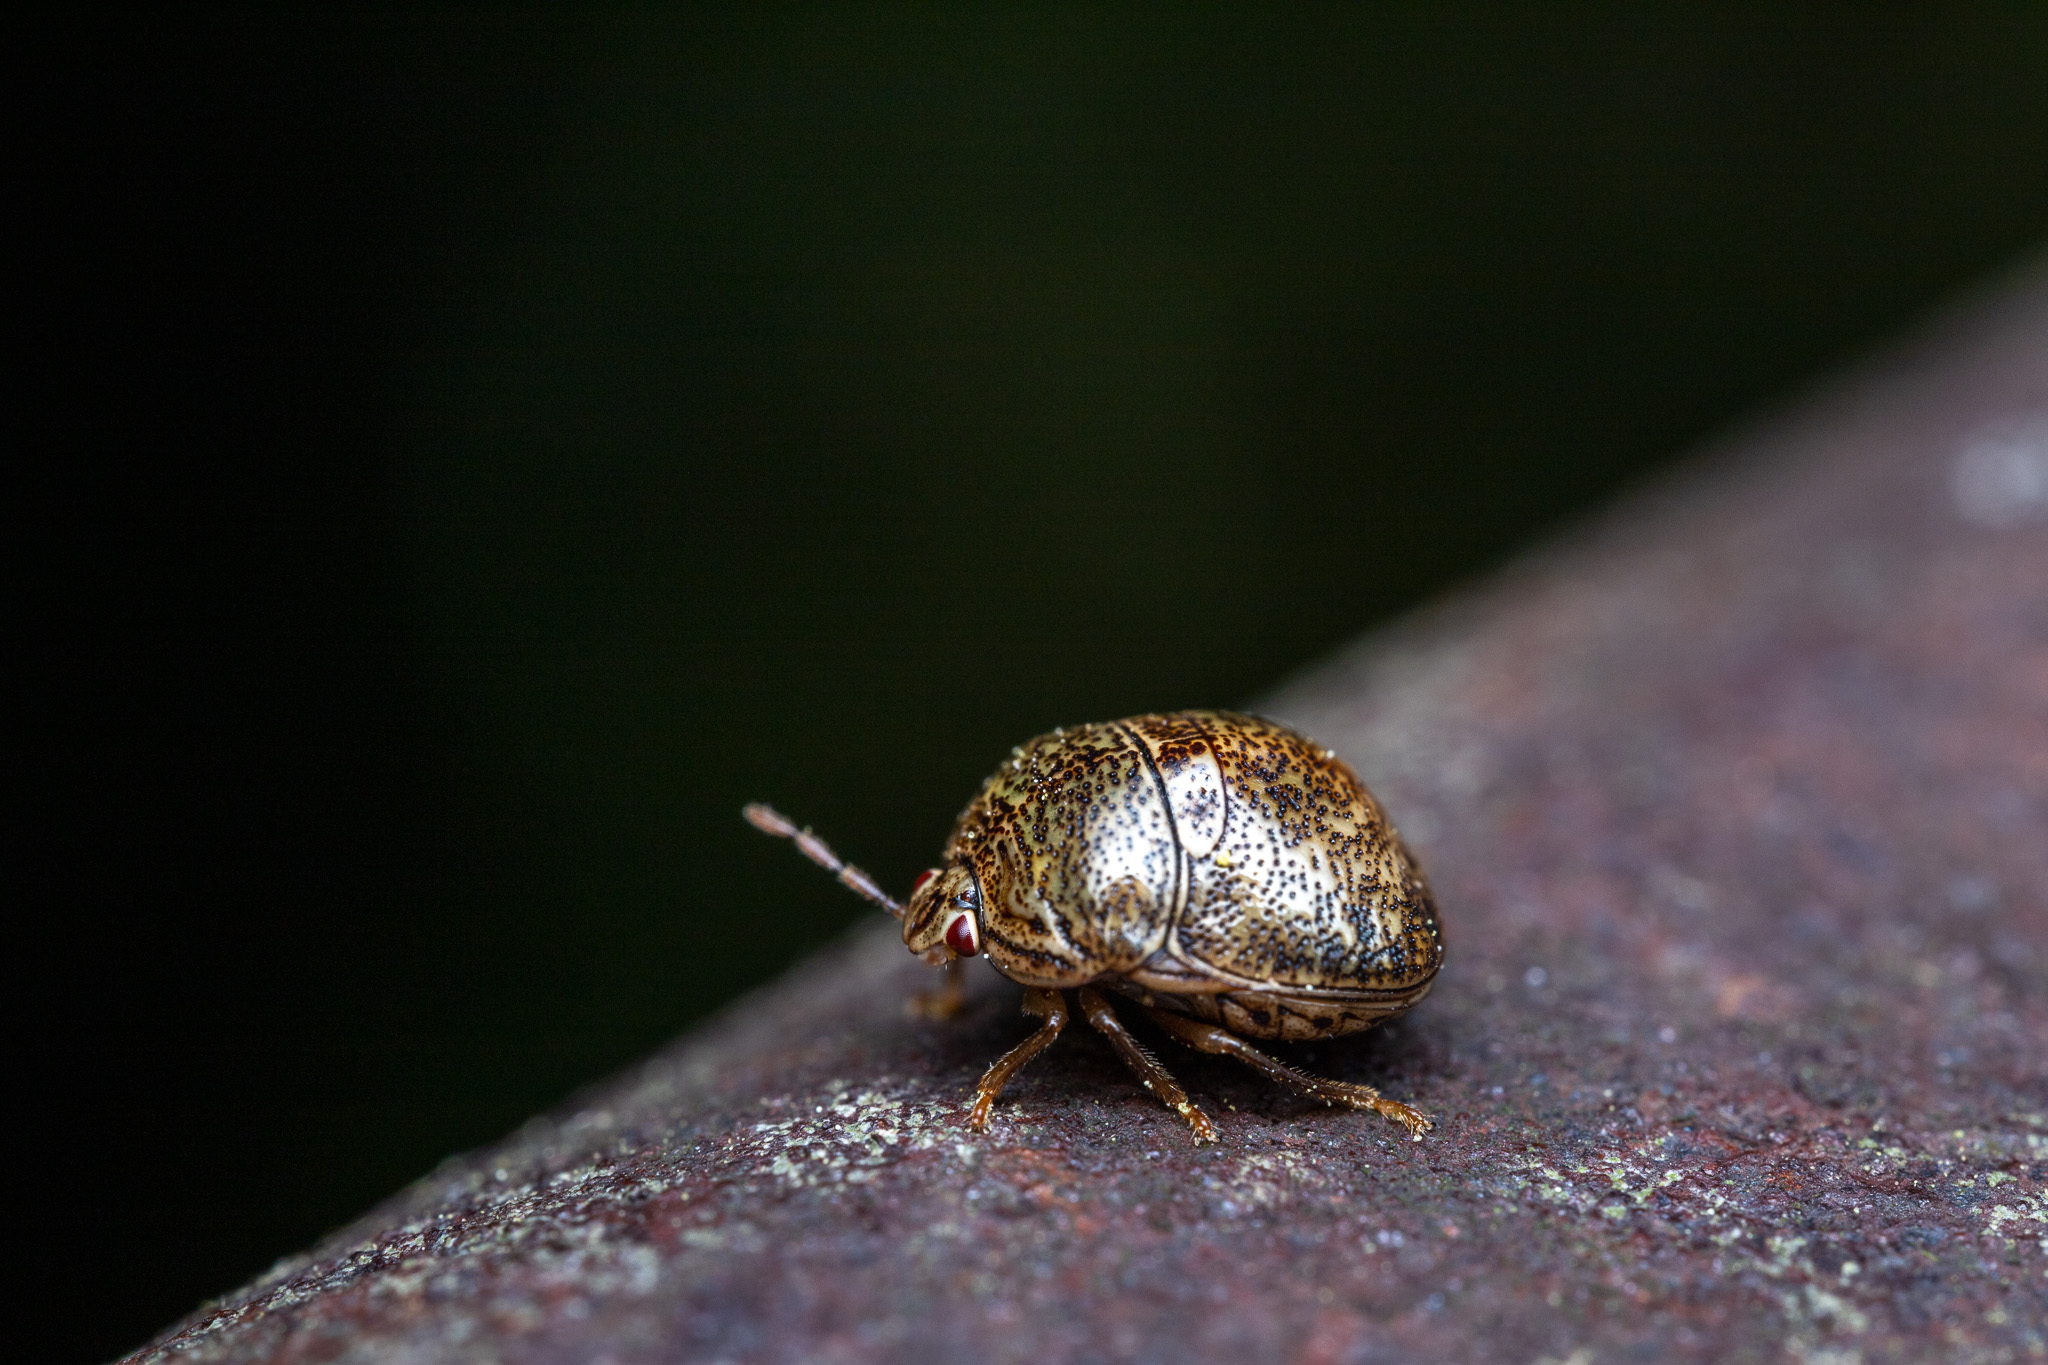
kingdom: Animalia
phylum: Arthropoda
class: Insecta
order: Hemiptera
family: Plataspidae
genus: Megacopta
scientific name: Megacopta cribraria
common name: Bean plataspid
